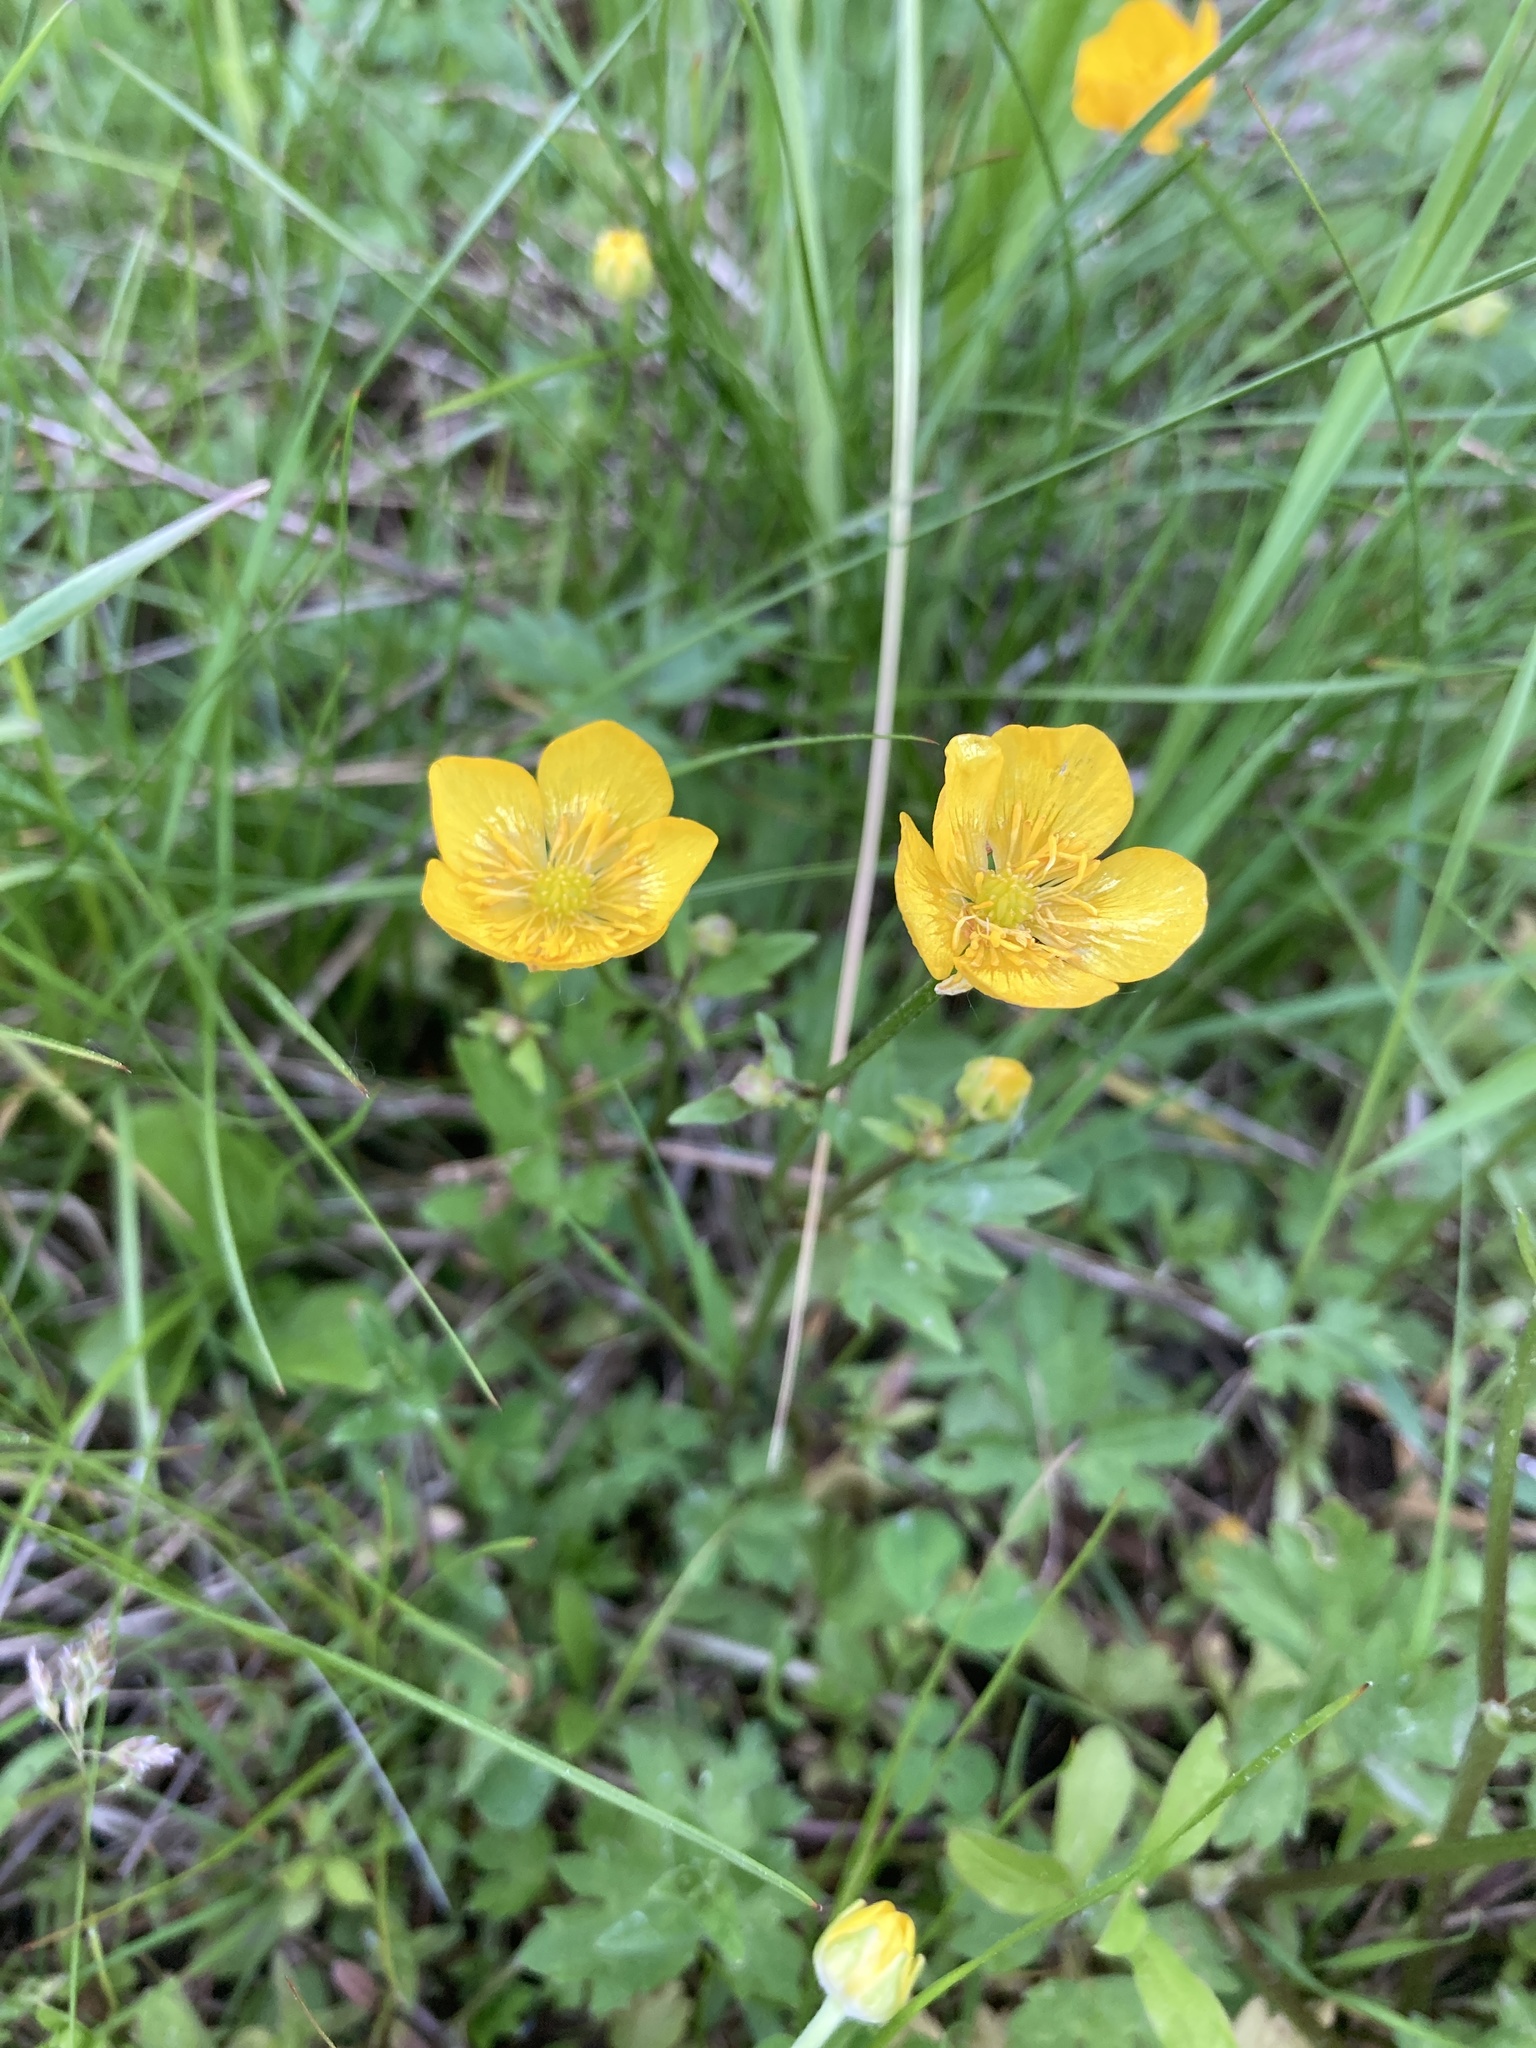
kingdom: Plantae
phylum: Tracheophyta
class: Magnoliopsida
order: Ranunculales
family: Ranunculaceae
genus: Ranunculus
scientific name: Ranunculus repens
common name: Creeping buttercup
